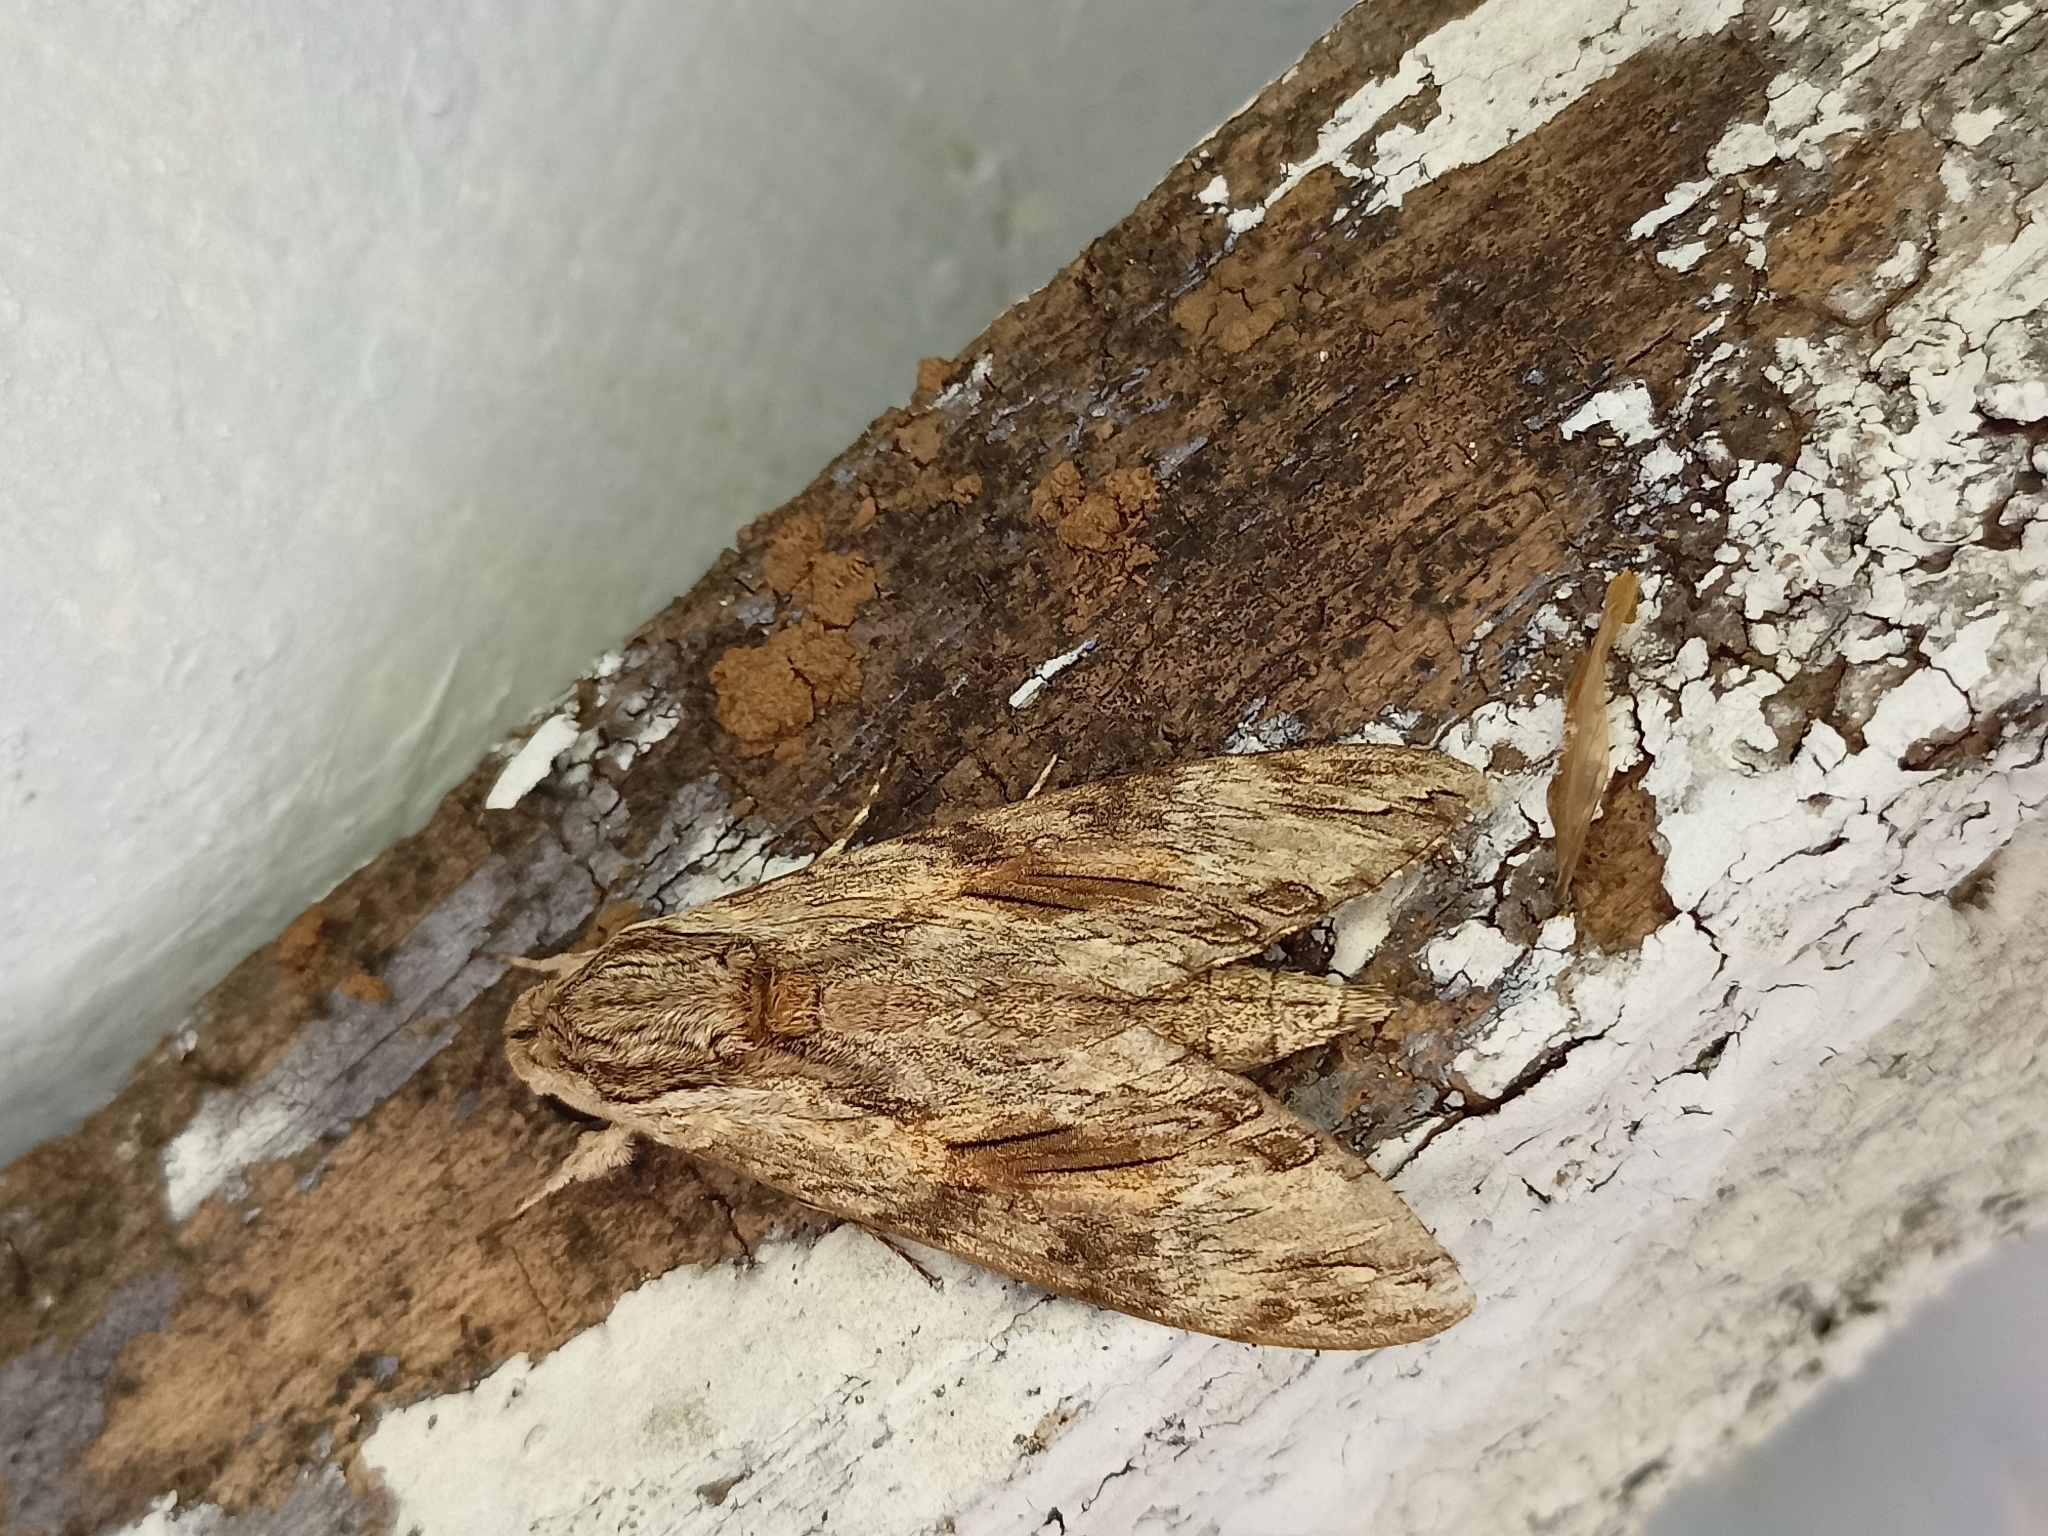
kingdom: Animalia
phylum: Arthropoda
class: Insecta
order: Lepidoptera
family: Sphingidae
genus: Agrius
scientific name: Agrius convolvuli
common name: Convolvulus hawkmoth
